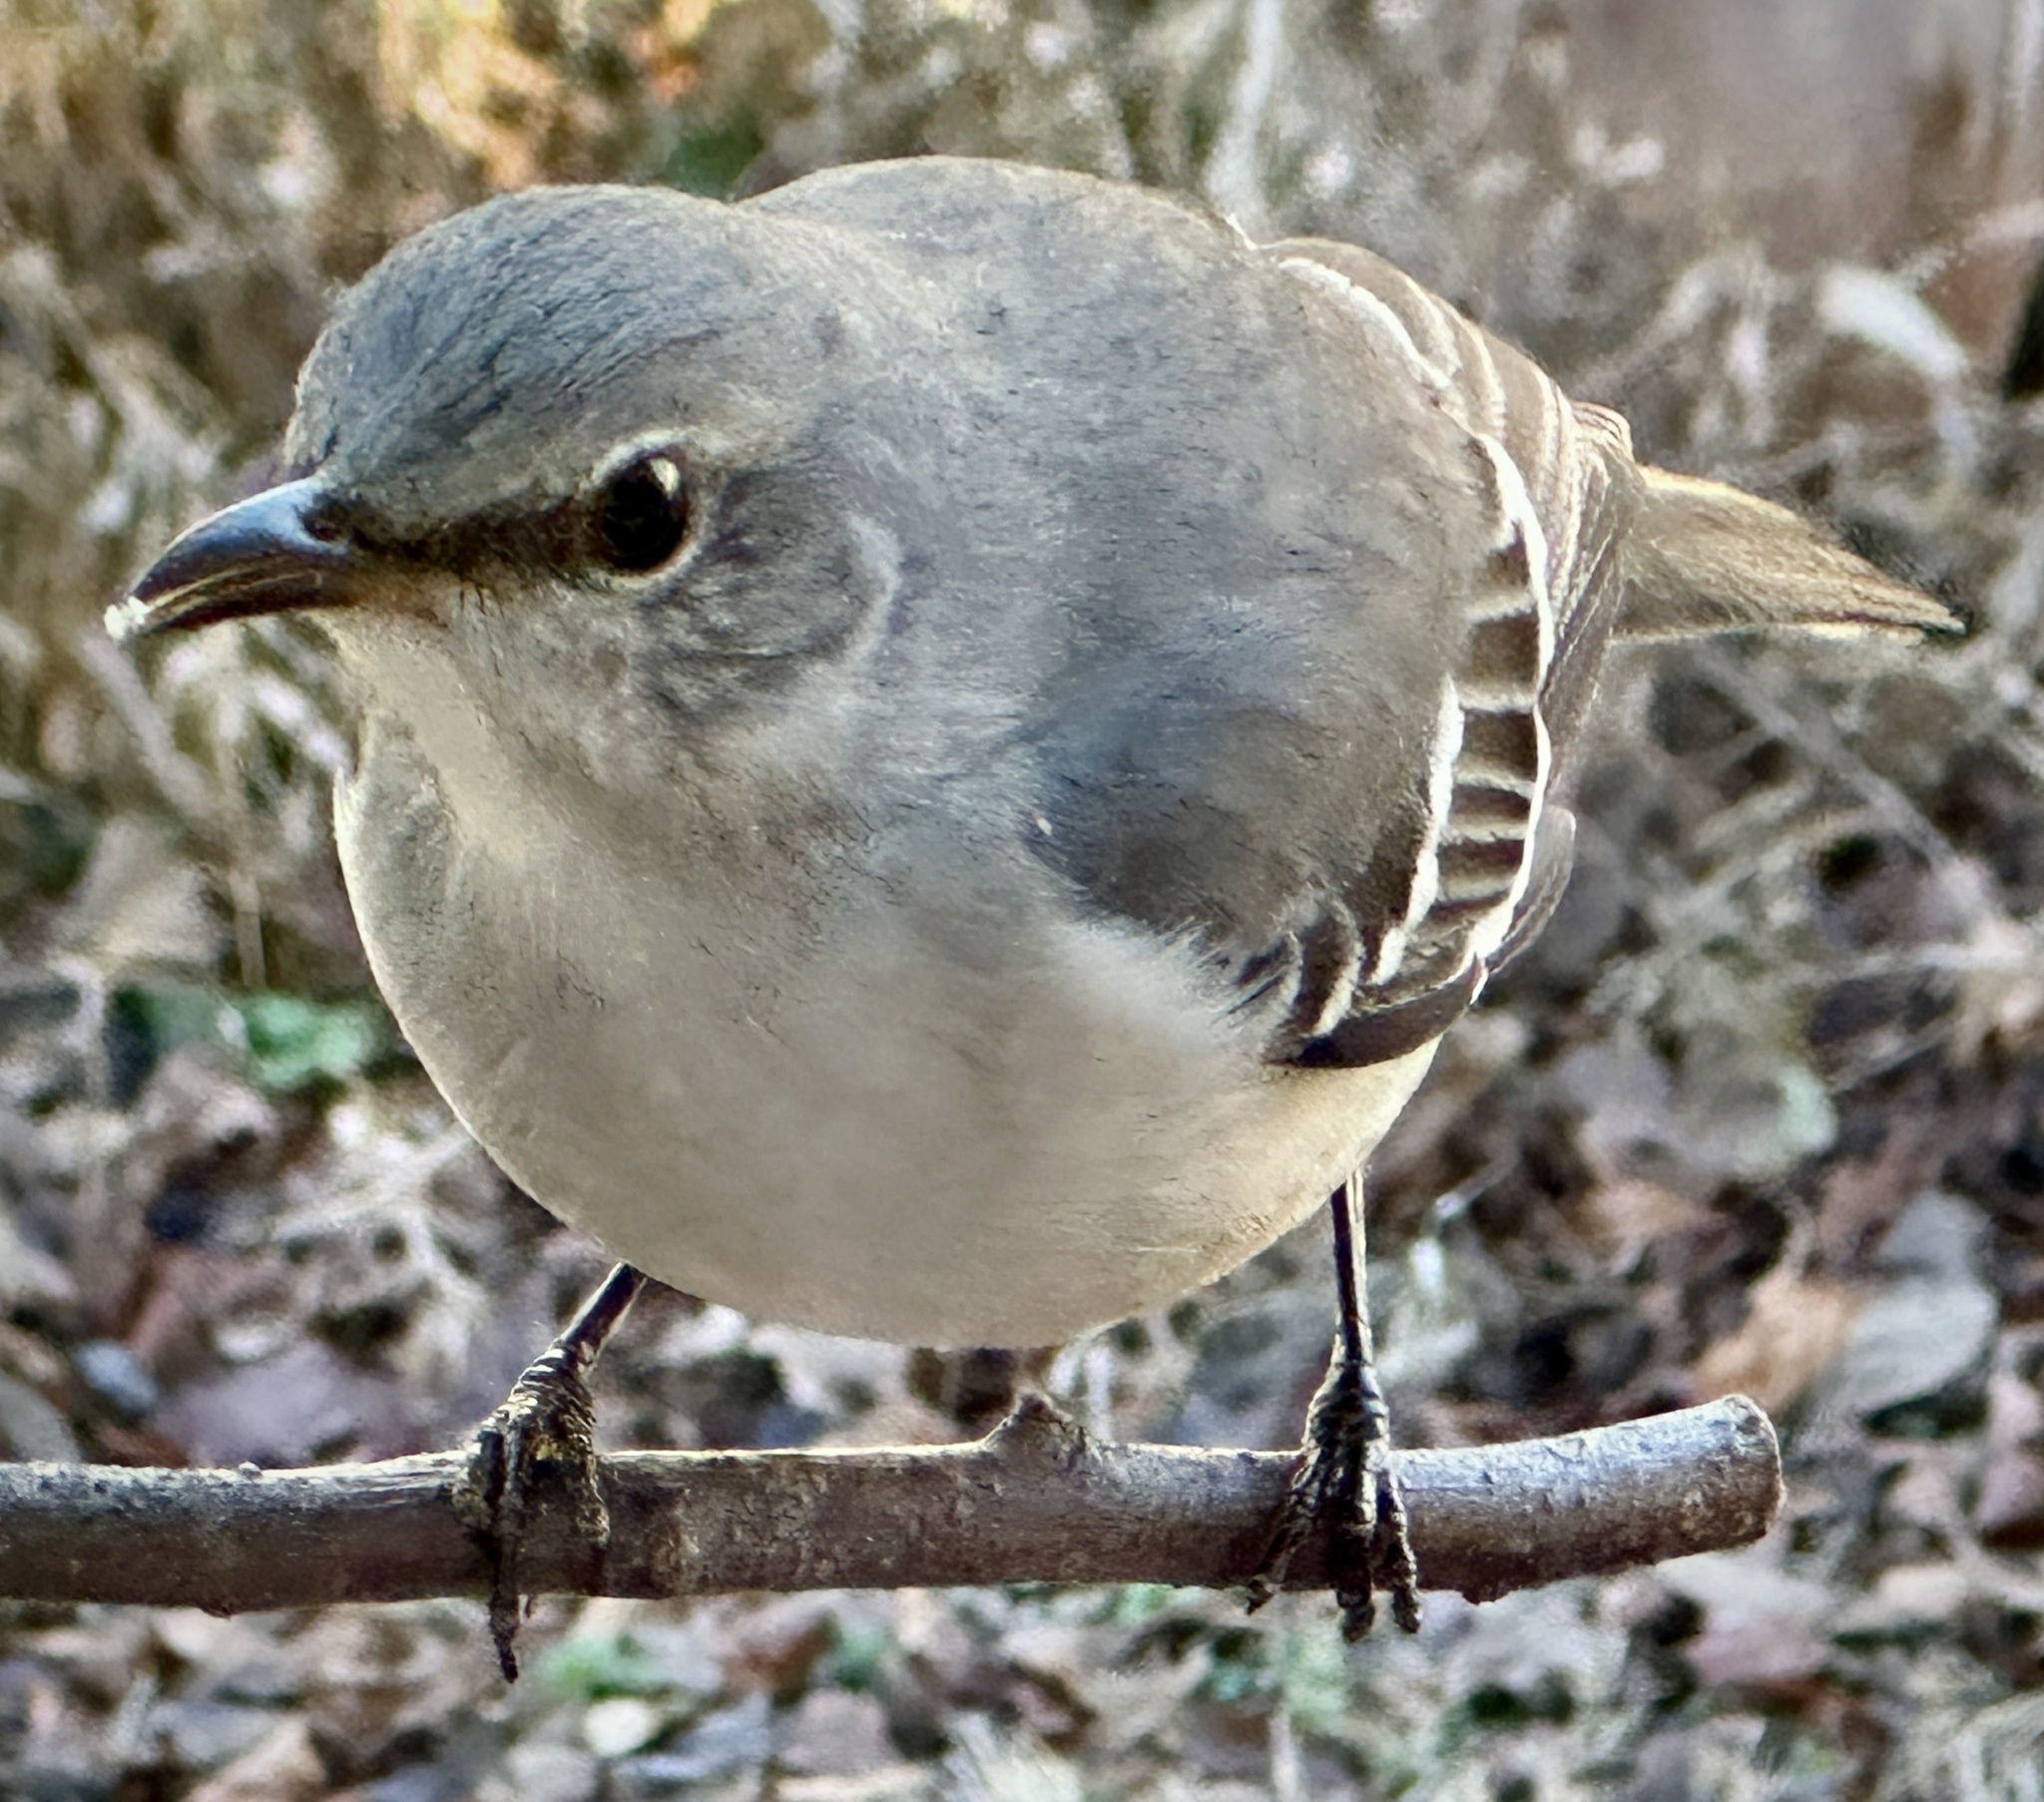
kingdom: Animalia
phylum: Chordata
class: Aves
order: Passeriformes
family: Mimidae
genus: Mimus
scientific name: Mimus polyglottos
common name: Northern mockingbird
